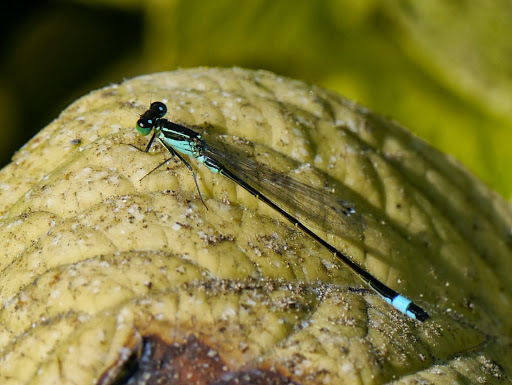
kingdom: Animalia
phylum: Arthropoda
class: Insecta
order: Odonata
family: Coenagrionidae
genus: Ischnura
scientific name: Ischnura elegans
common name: Blue-tailed damselfly
